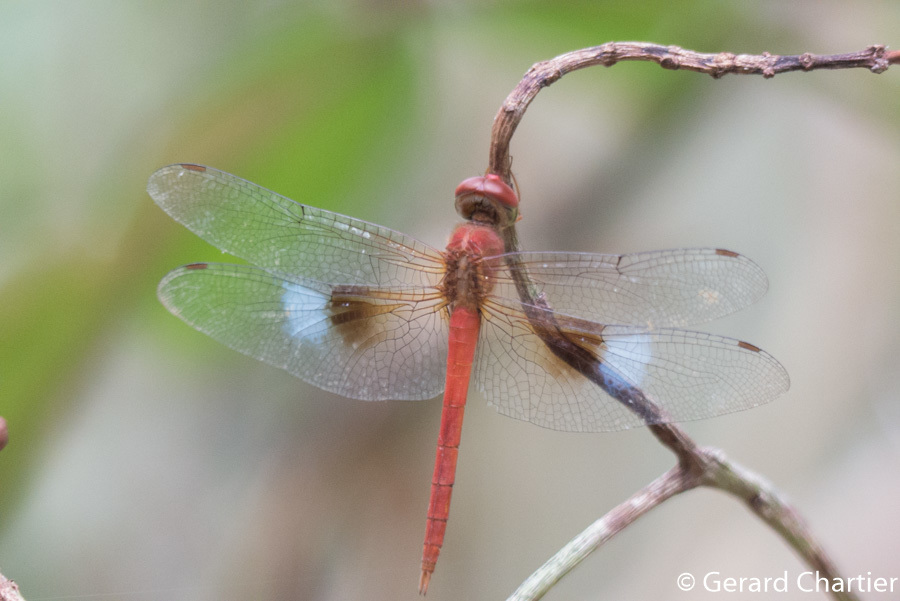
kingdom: Animalia
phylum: Arthropoda
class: Insecta
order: Odonata
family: Libellulidae
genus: Tholymis
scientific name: Tholymis tillarga
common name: Coral-tailed cloud wing
